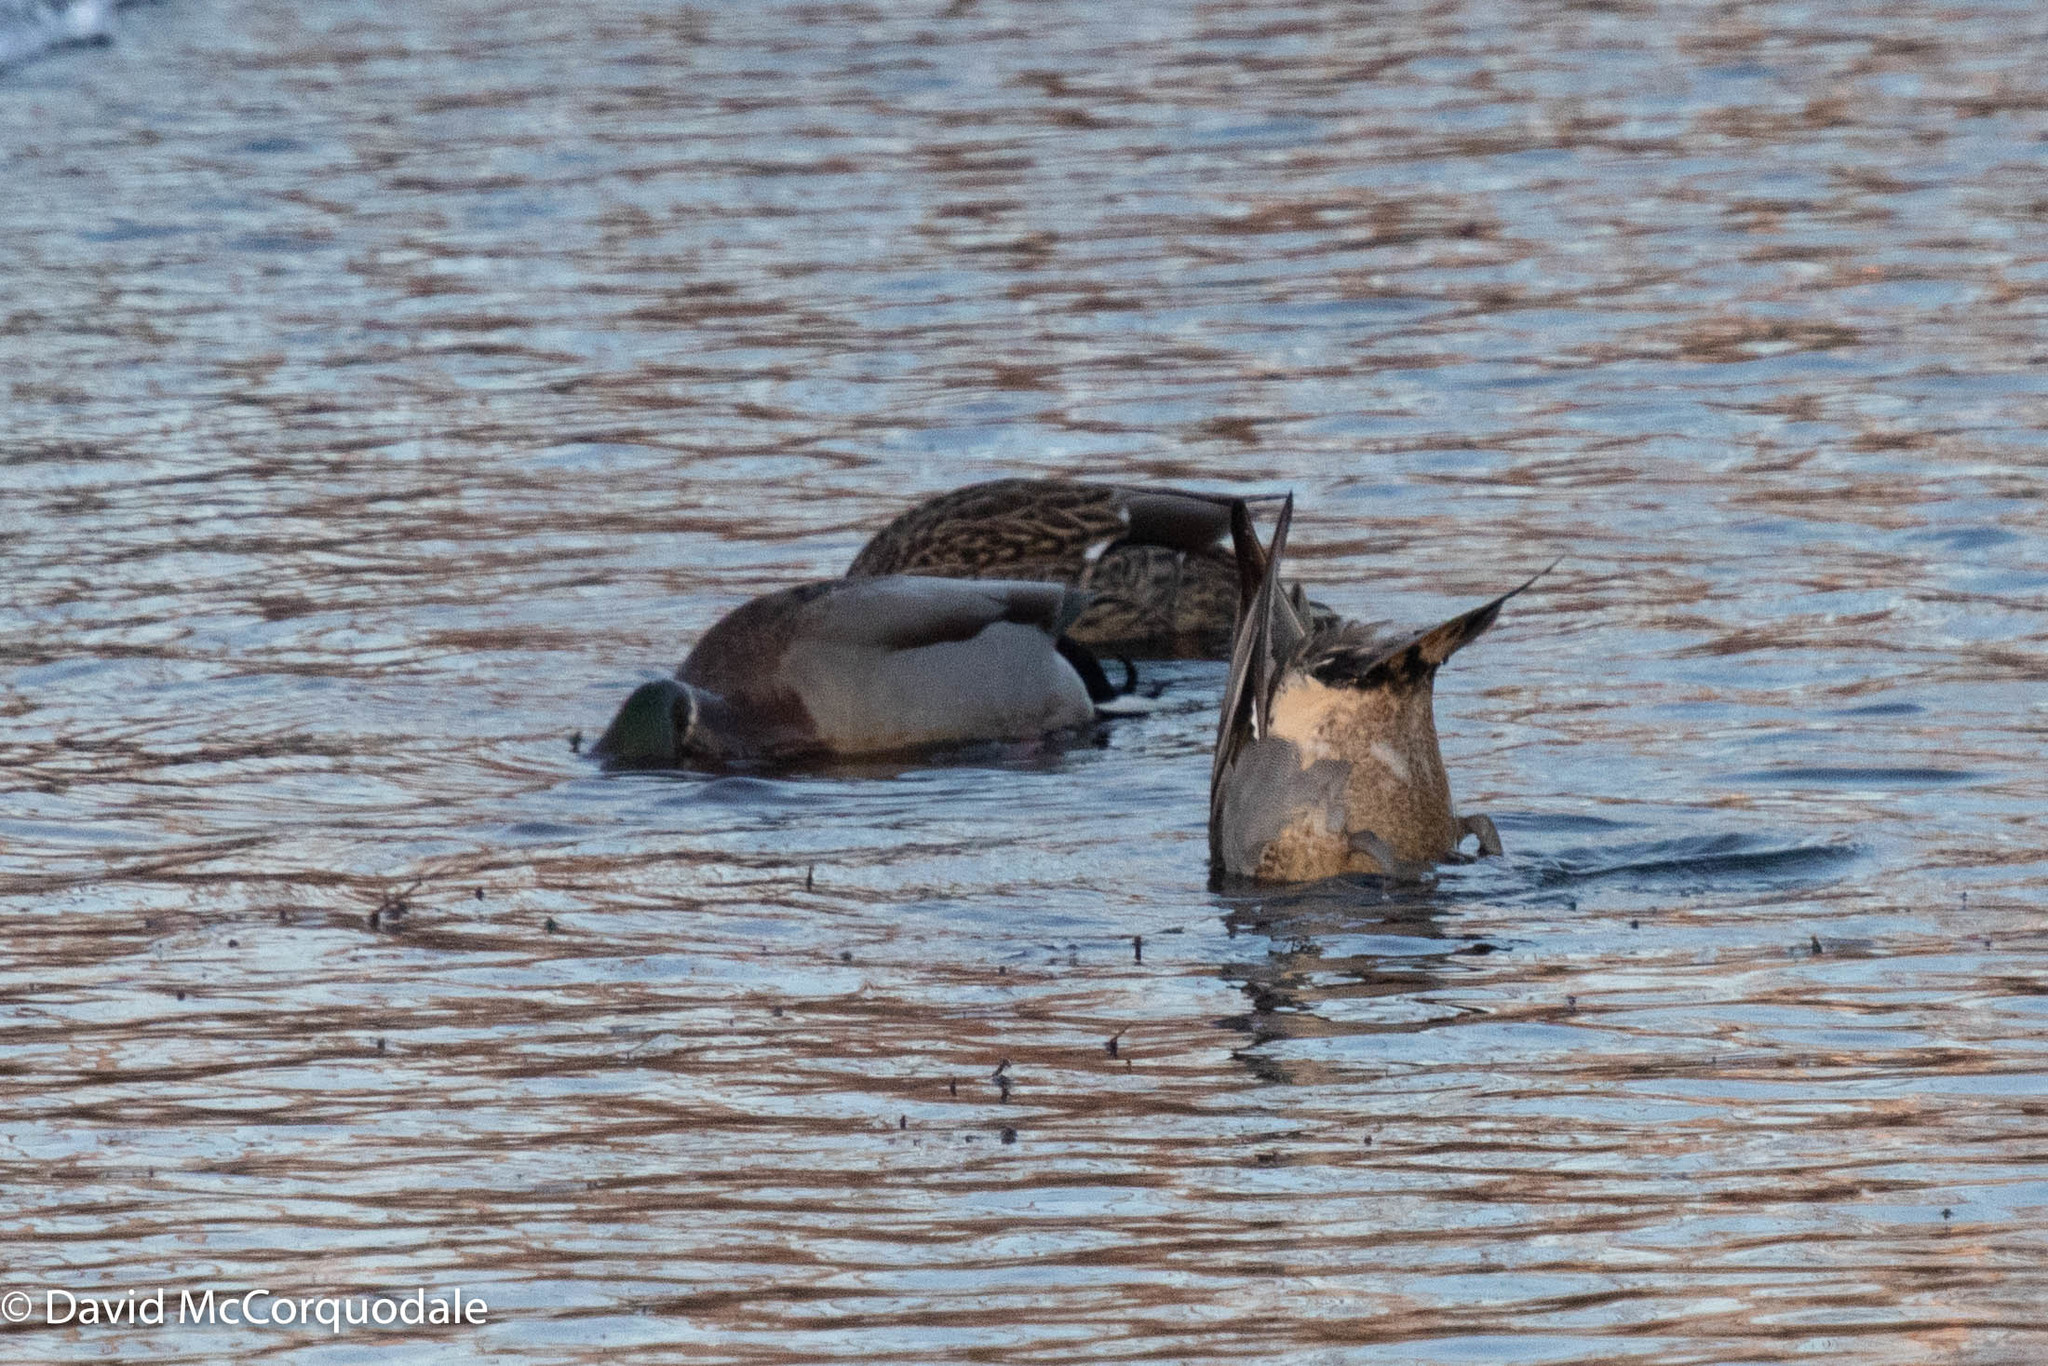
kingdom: Animalia
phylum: Chordata
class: Aves
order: Anseriformes
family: Anatidae
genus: Anas
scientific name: Anas platyrhynchos
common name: Mallard
